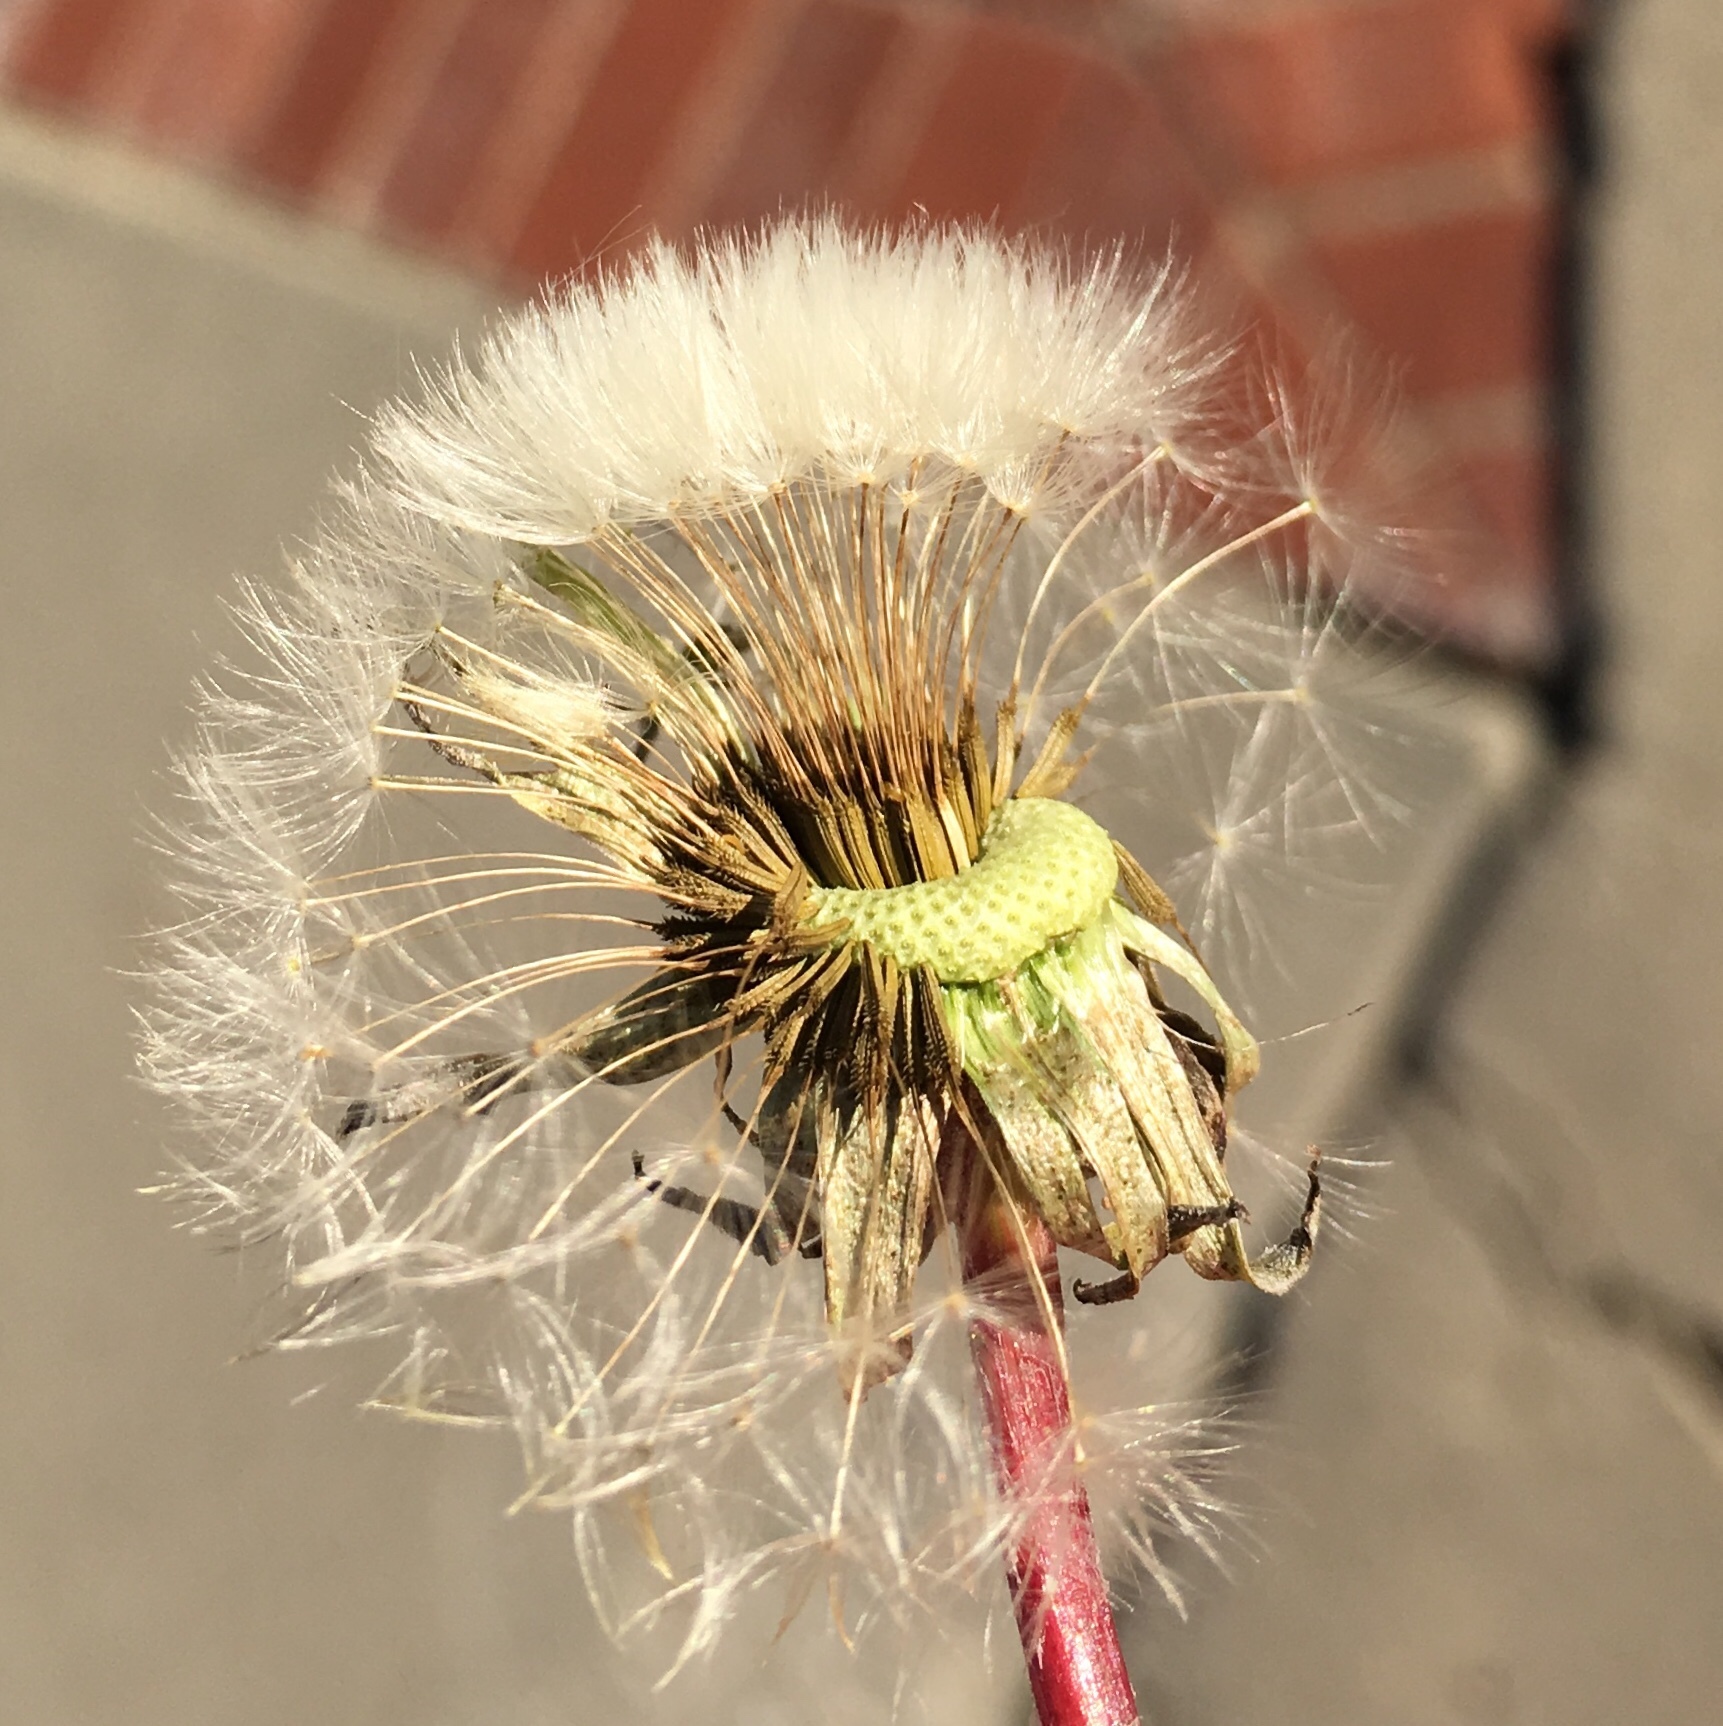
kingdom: Plantae
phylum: Tracheophyta
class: Magnoliopsida
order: Asterales
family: Asteraceae
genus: Taraxacum
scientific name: Taraxacum officinale
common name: Common dandelion
